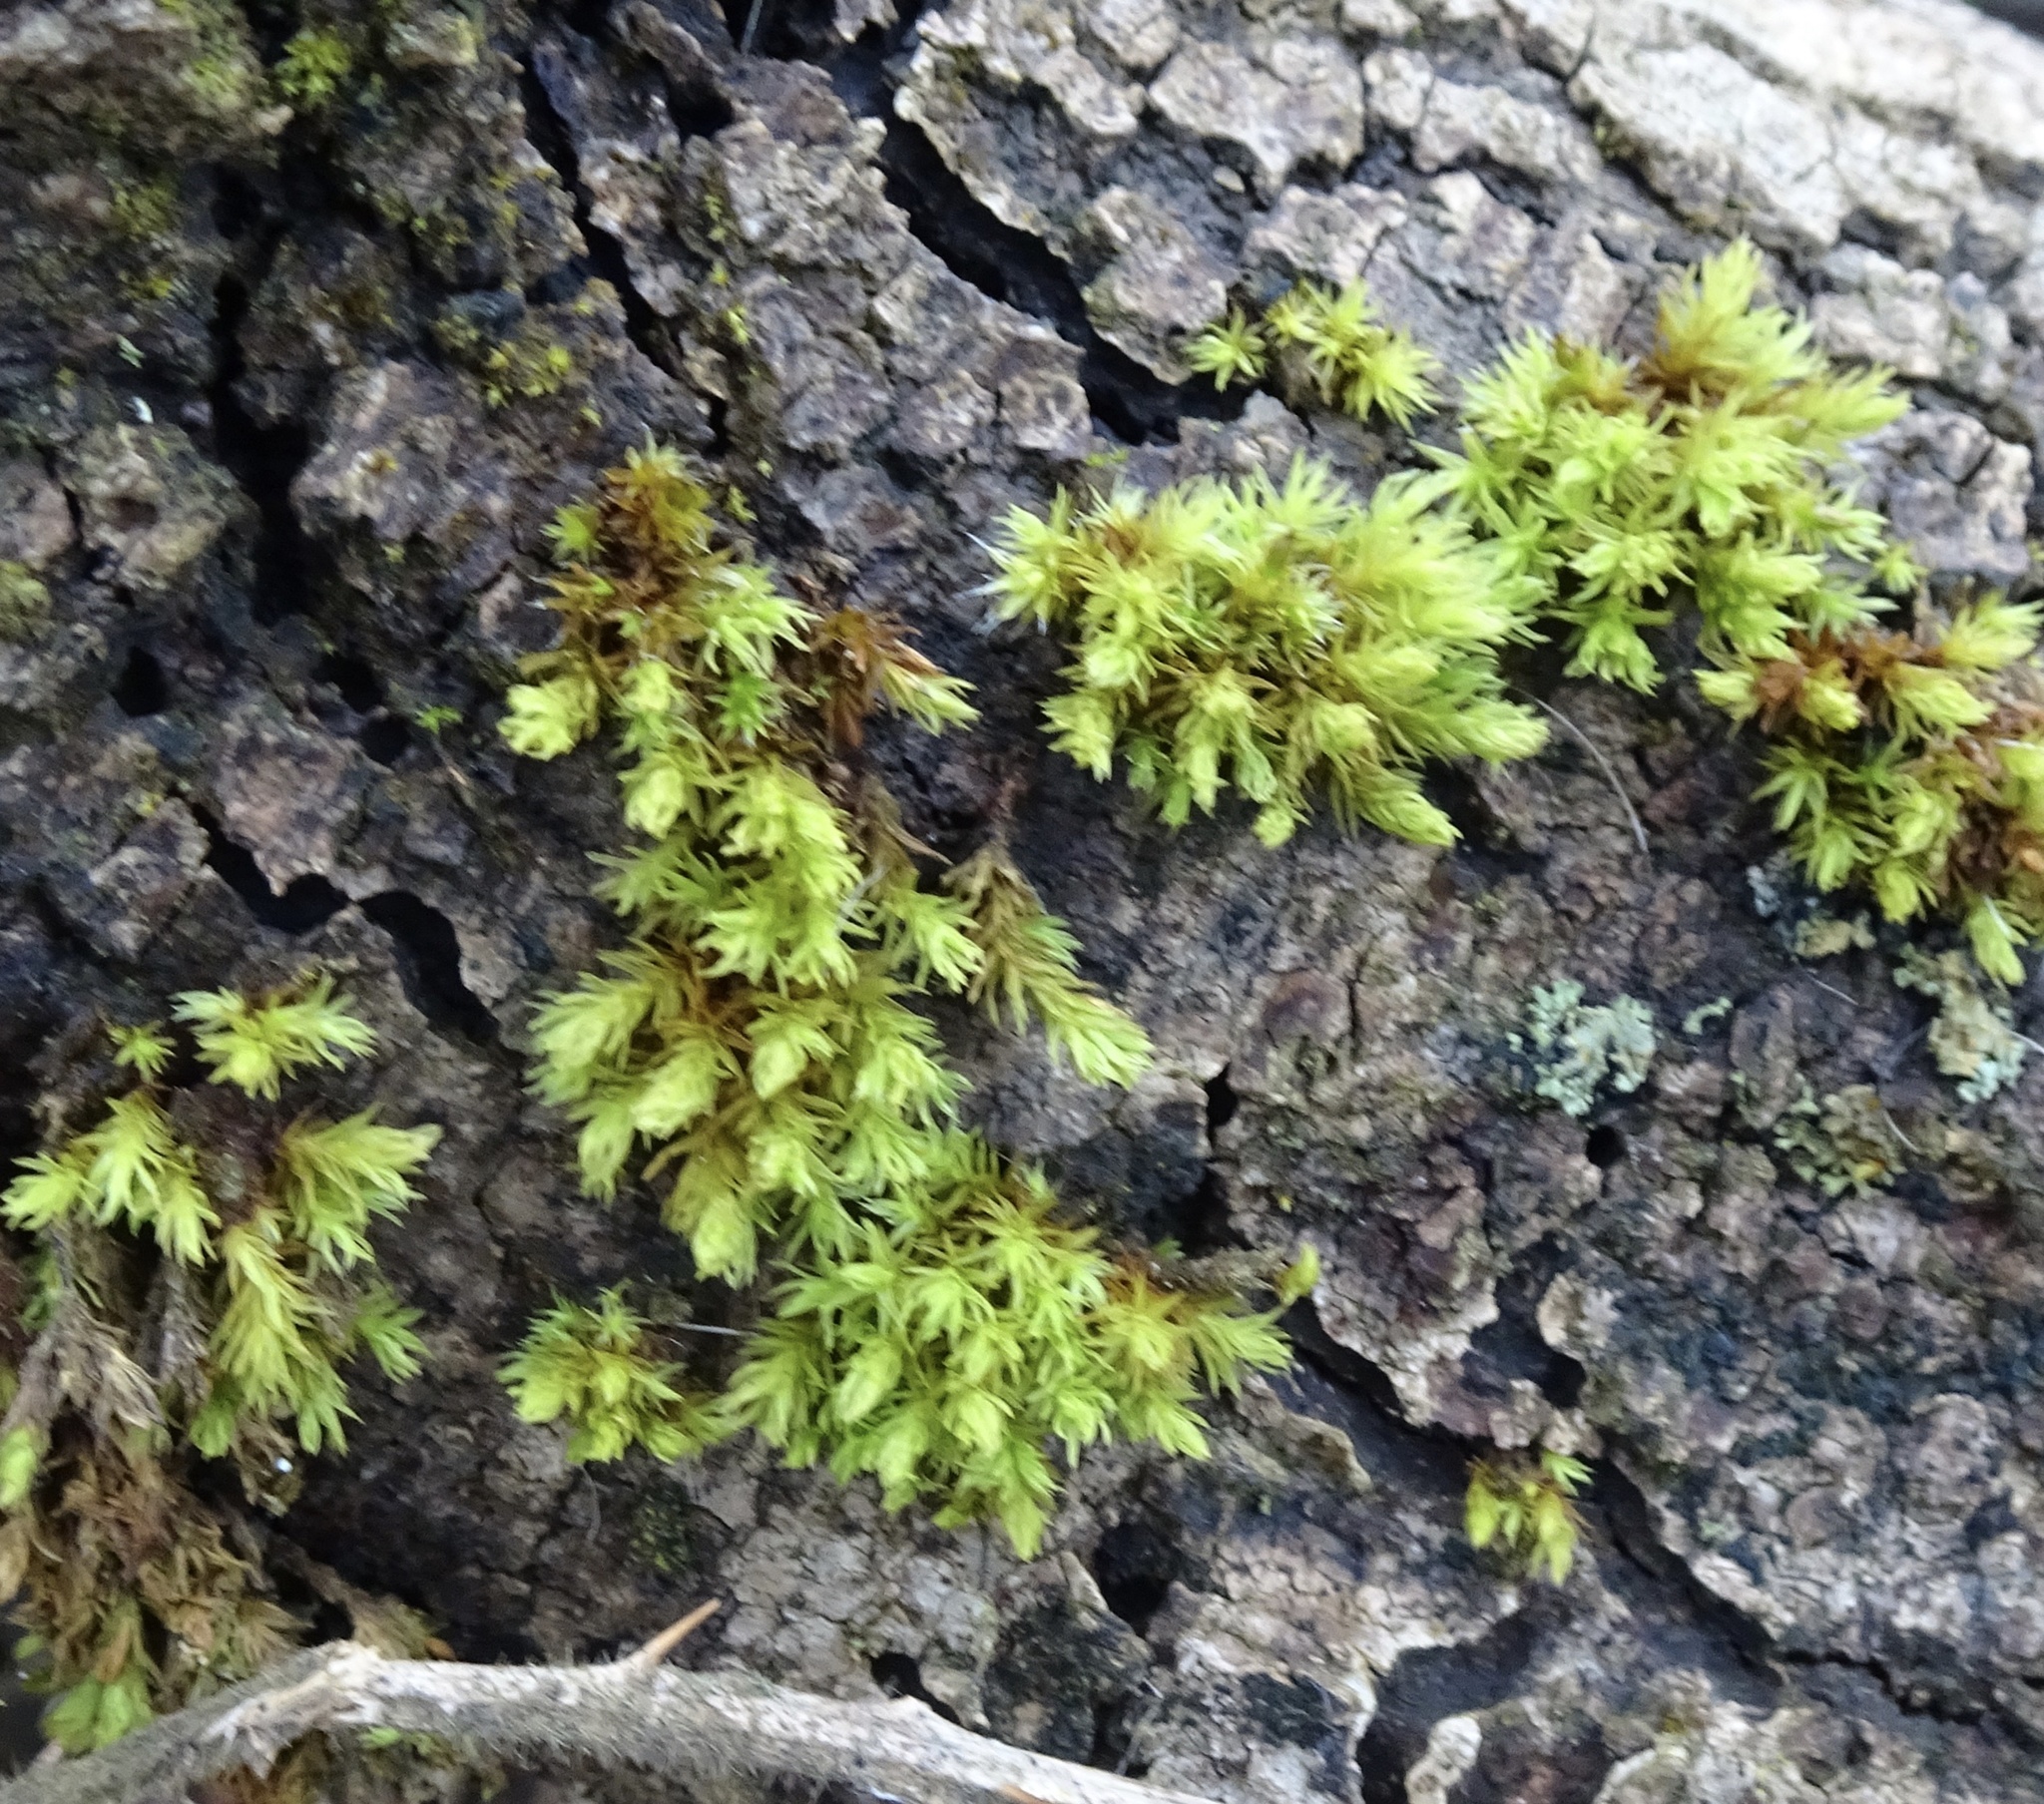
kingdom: Plantae
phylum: Bryophyta
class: Bryopsida
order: Orthotrichales
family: Orthotrichaceae
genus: Lewinskya
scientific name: Lewinskya affinis
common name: Wood bristle-moss
